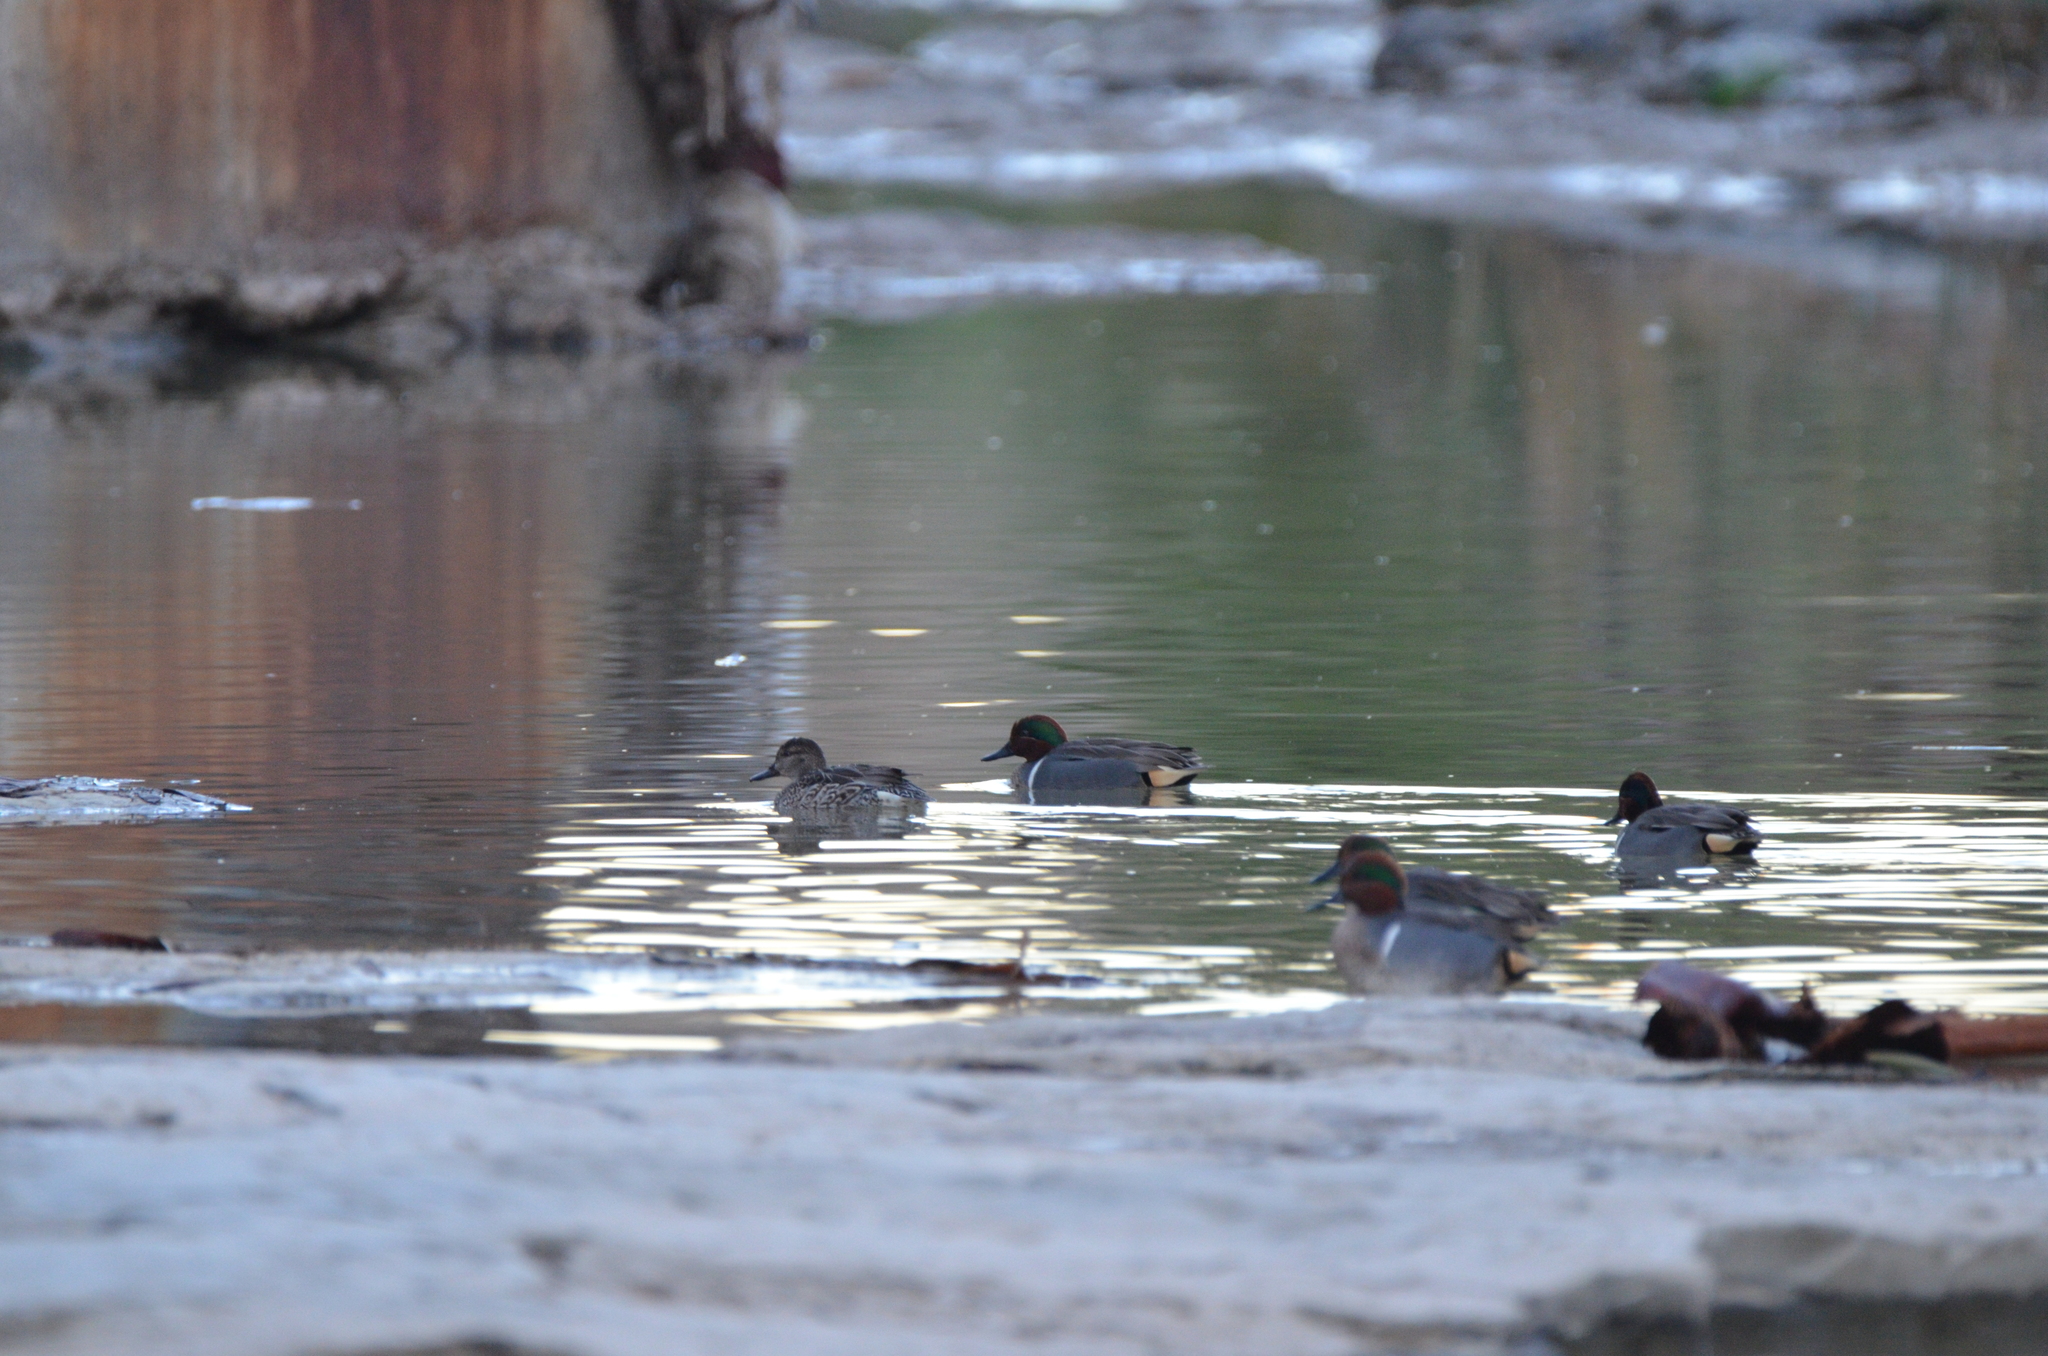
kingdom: Animalia
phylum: Chordata
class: Aves
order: Anseriformes
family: Anatidae
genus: Anas
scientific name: Anas crecca
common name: Eurasian teal
